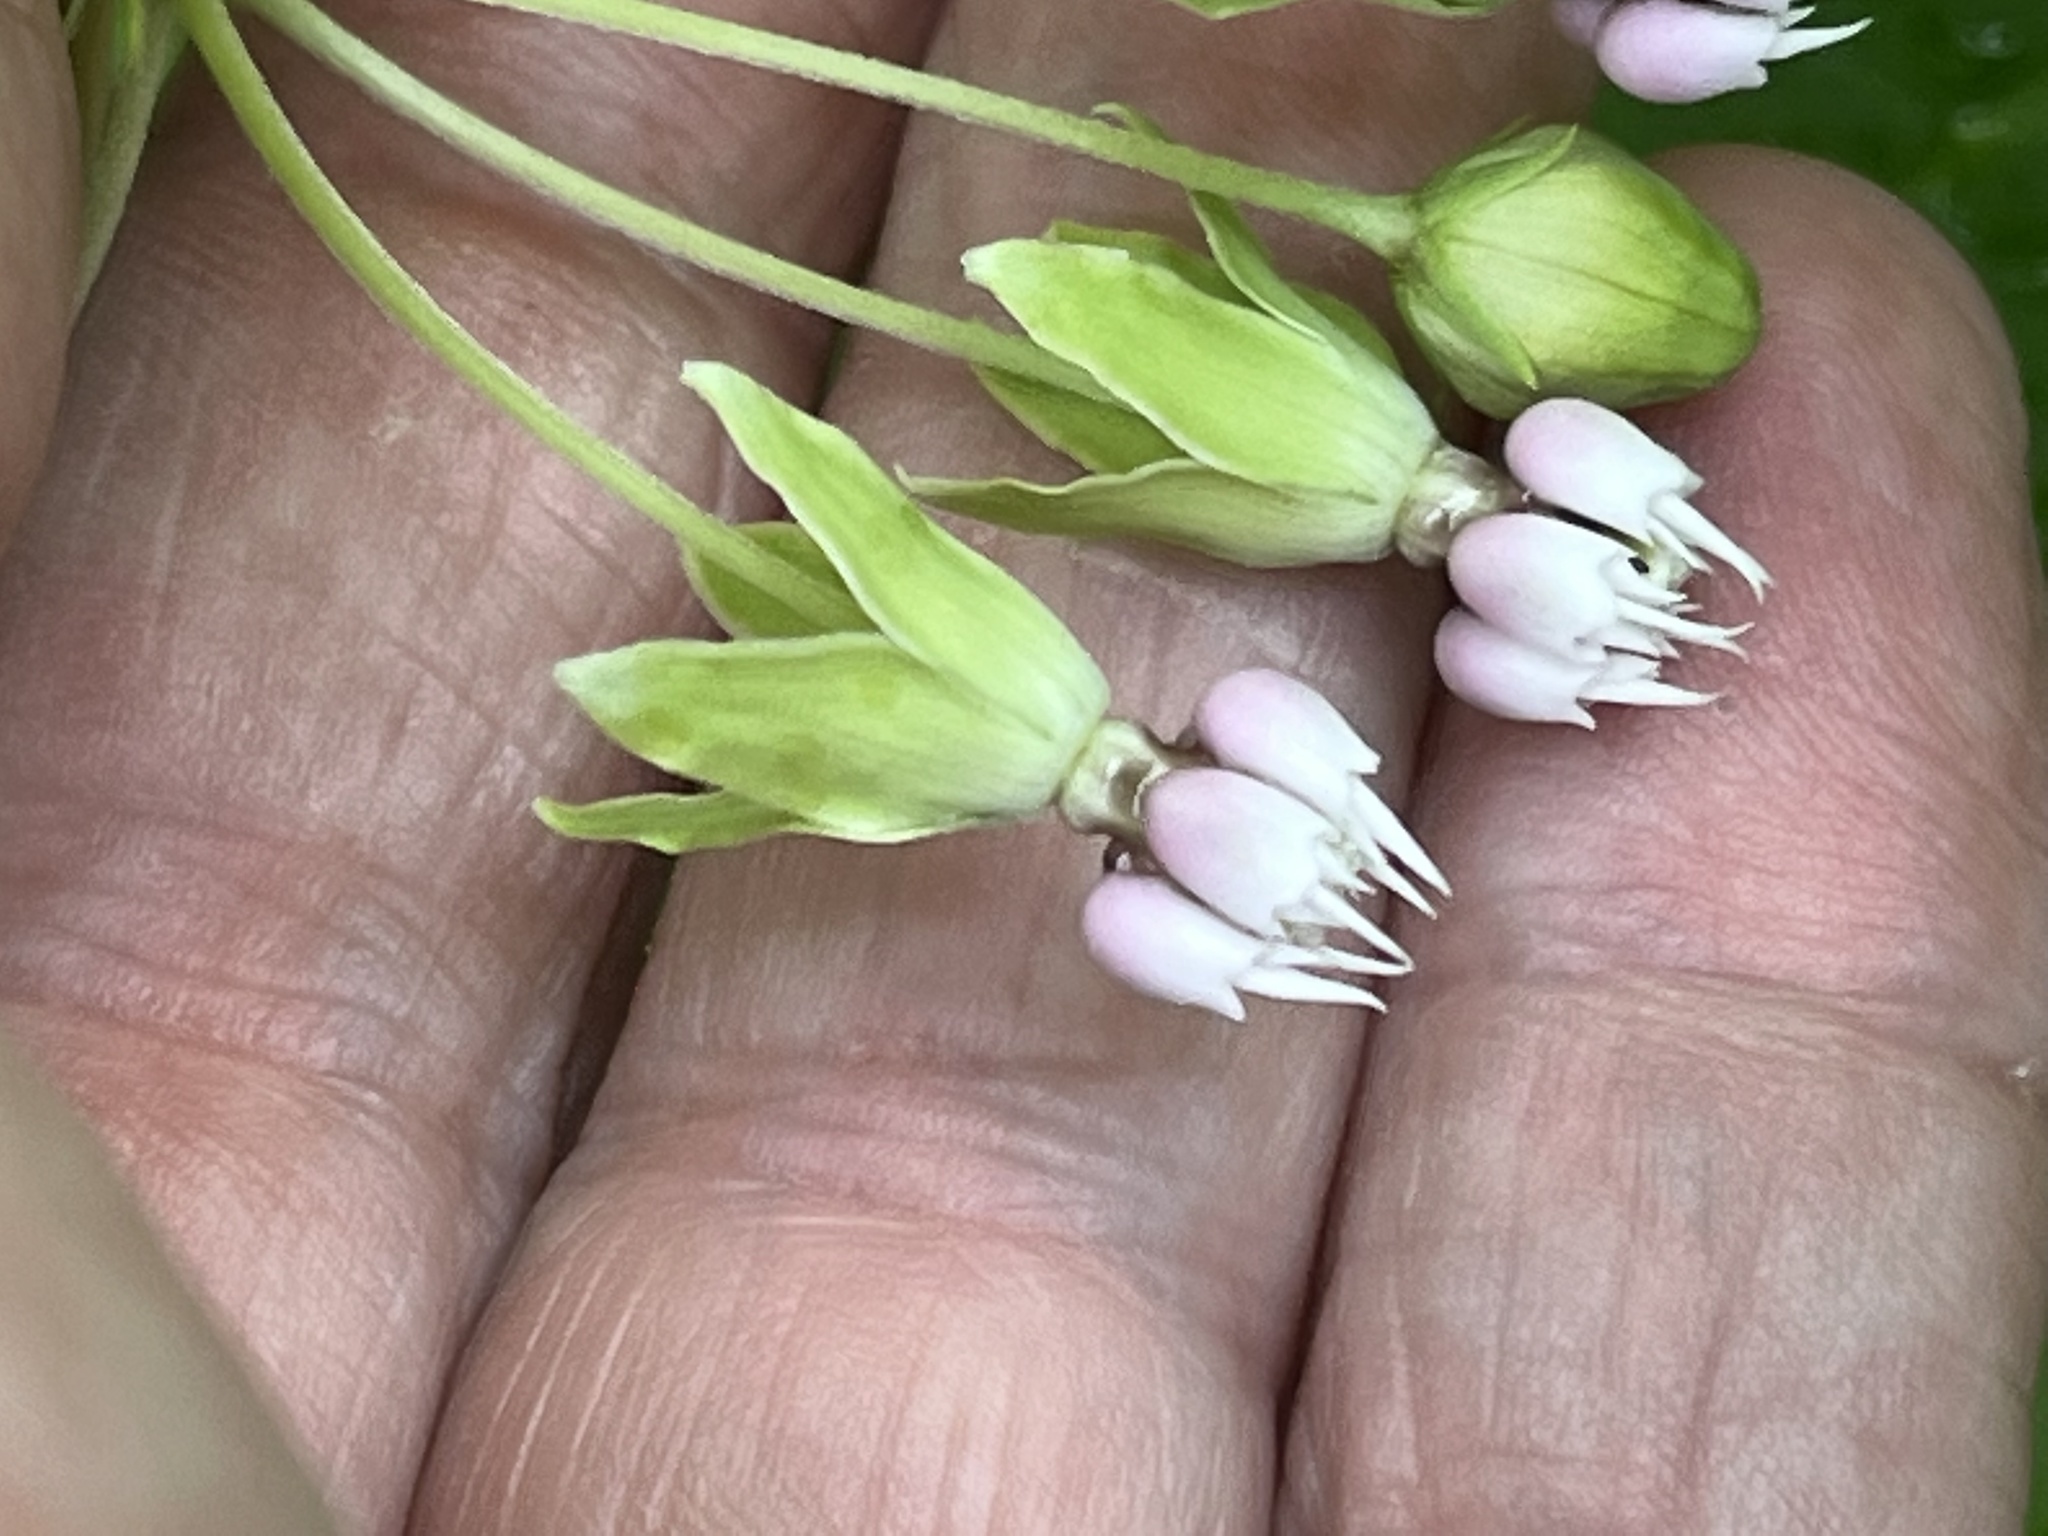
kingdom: Plantae
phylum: Tracheophyta
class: Magnoliopsida
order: Gentianales
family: Apocynaceae
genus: Asclepias
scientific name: Asclepias exaltata
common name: Poke milkweed
